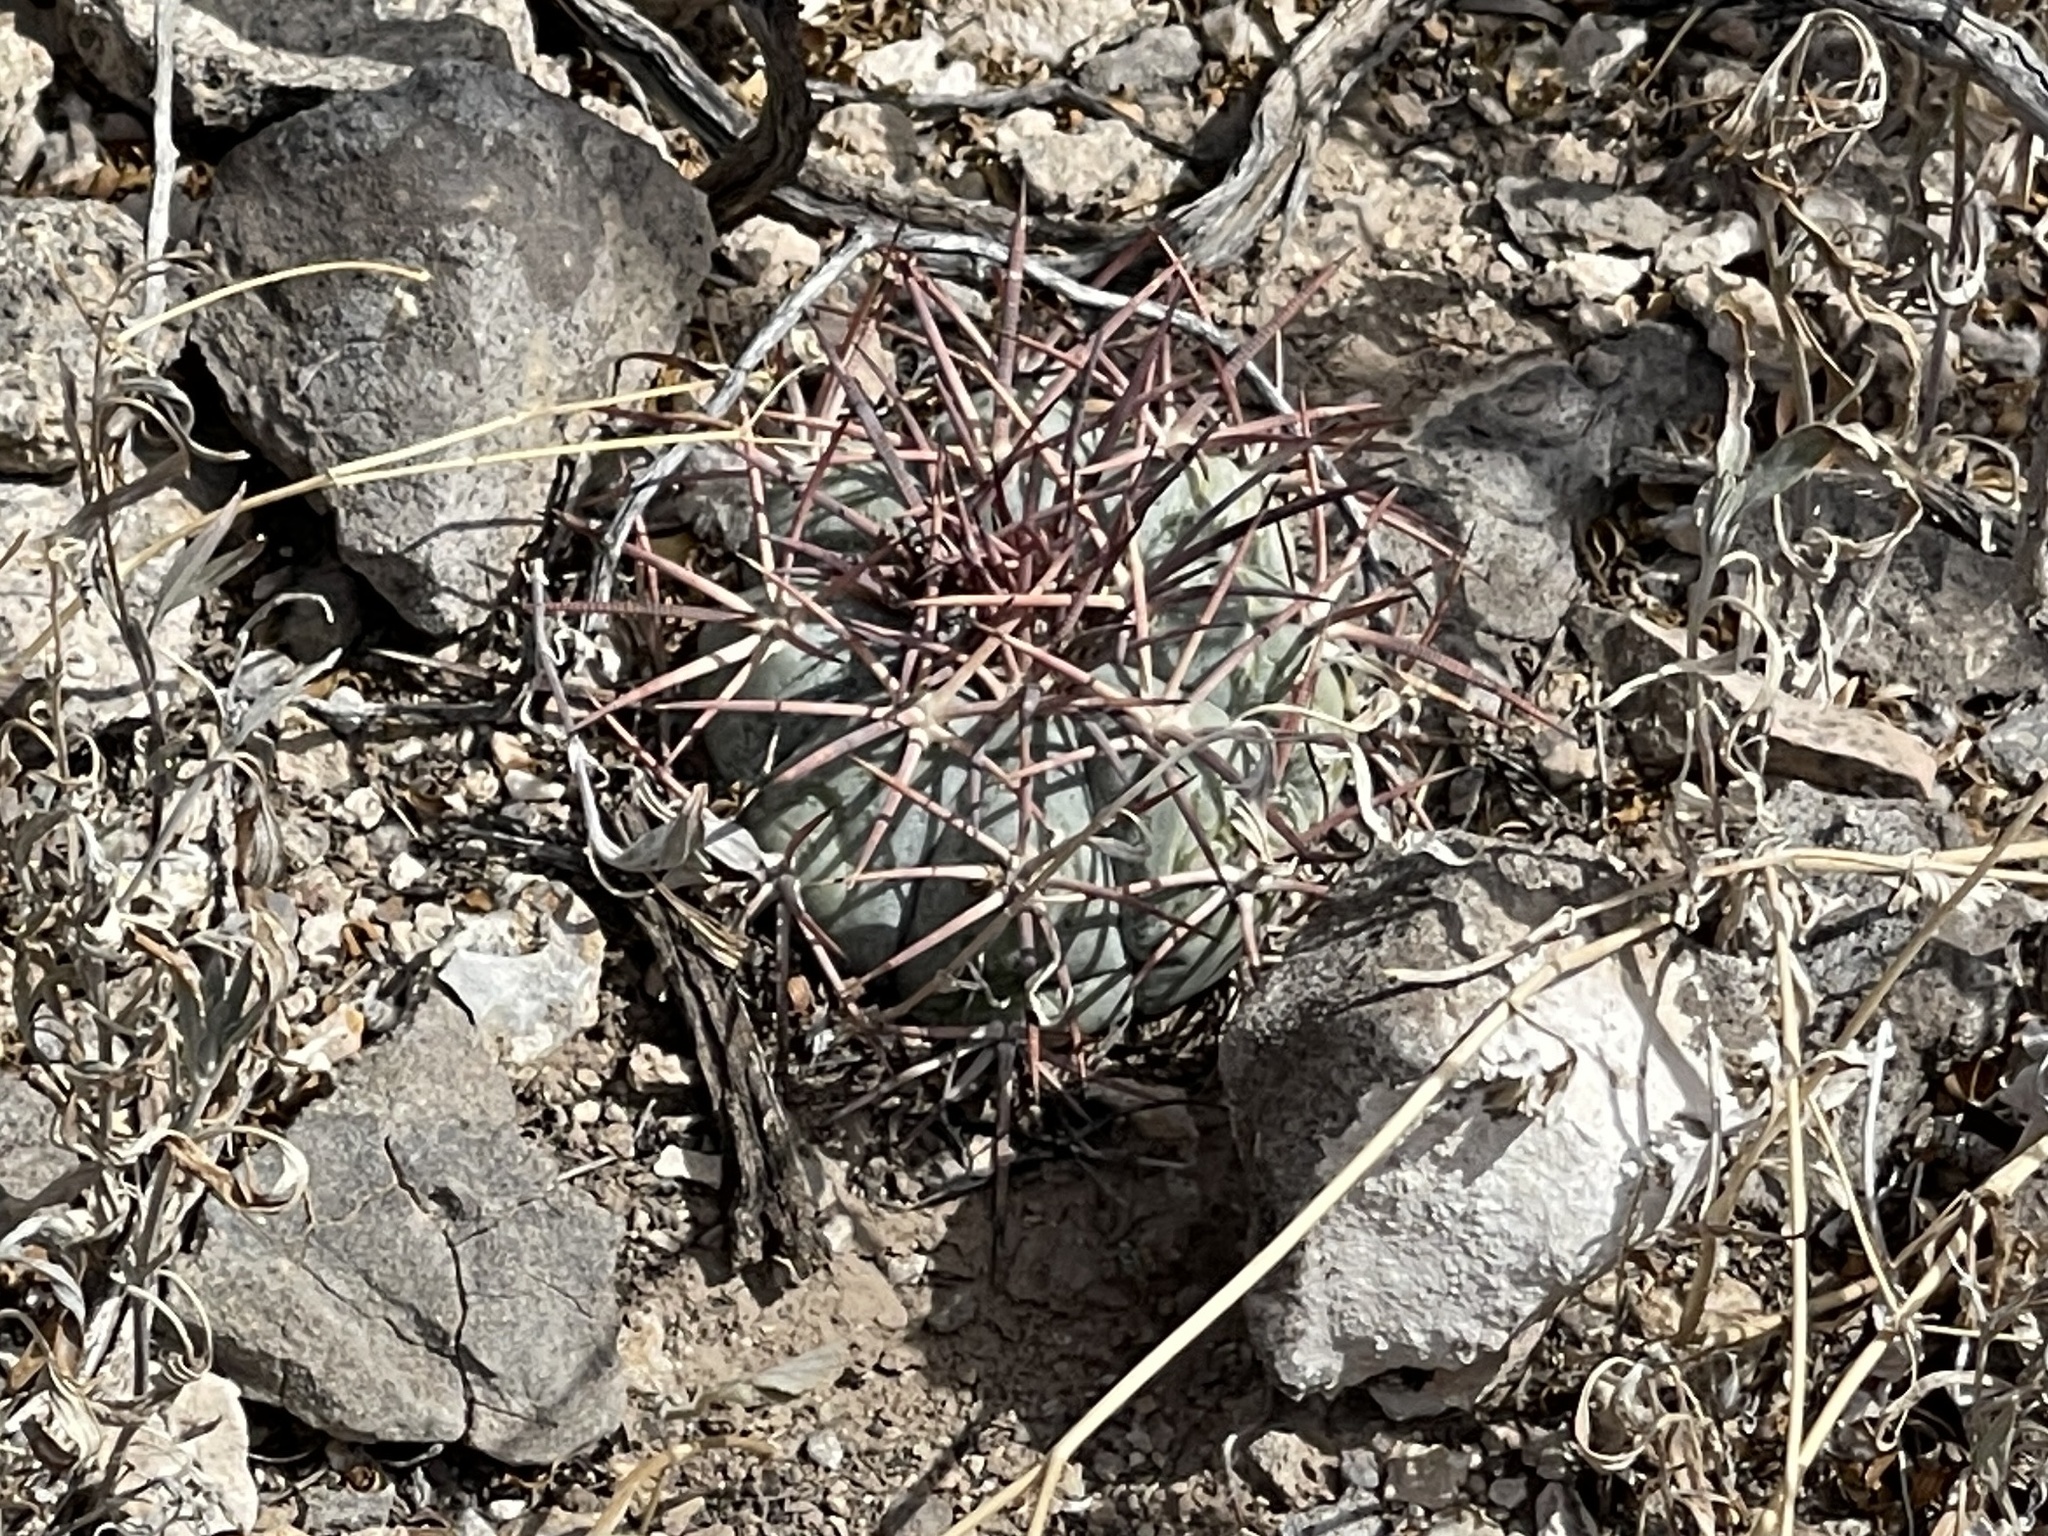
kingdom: Plantae
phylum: Tracheophyta
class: Magnoliopsida
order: Caryophyllales
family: Cactaceae
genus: Echinocactus
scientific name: Echinocactus horizonthalonius
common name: Devilshead
